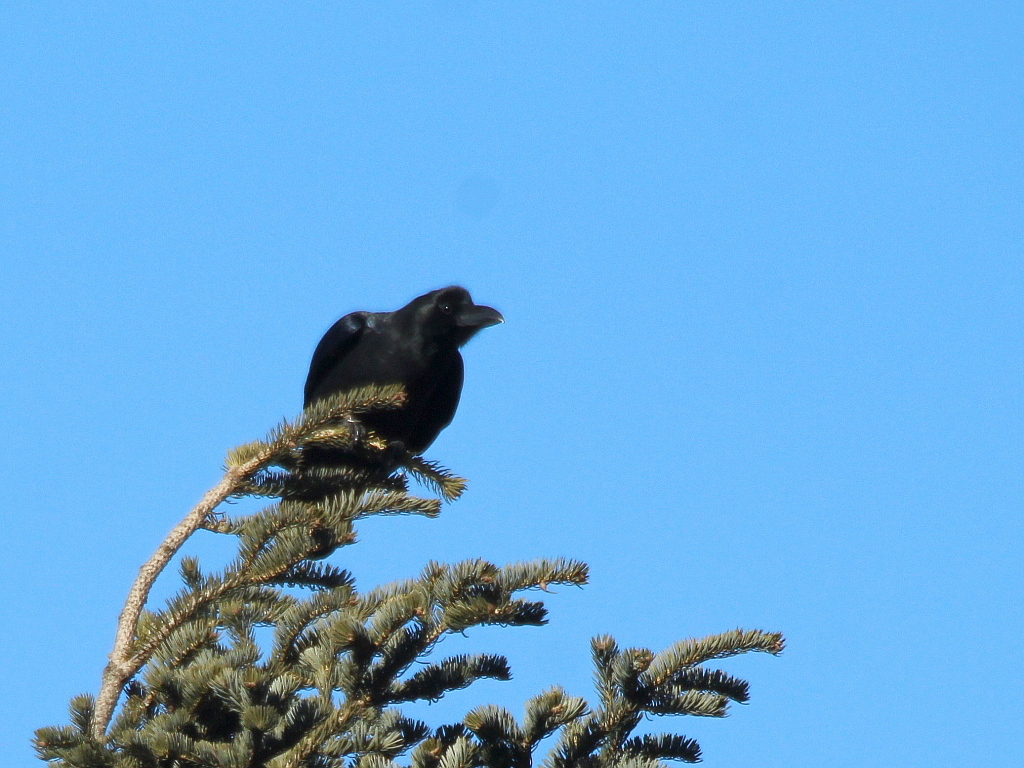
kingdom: Animalia
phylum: Chordata
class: Aves
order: Passeriformes
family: Corvidae
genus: Corvus
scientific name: Corvus macrorhynchos
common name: Large-billed crow
